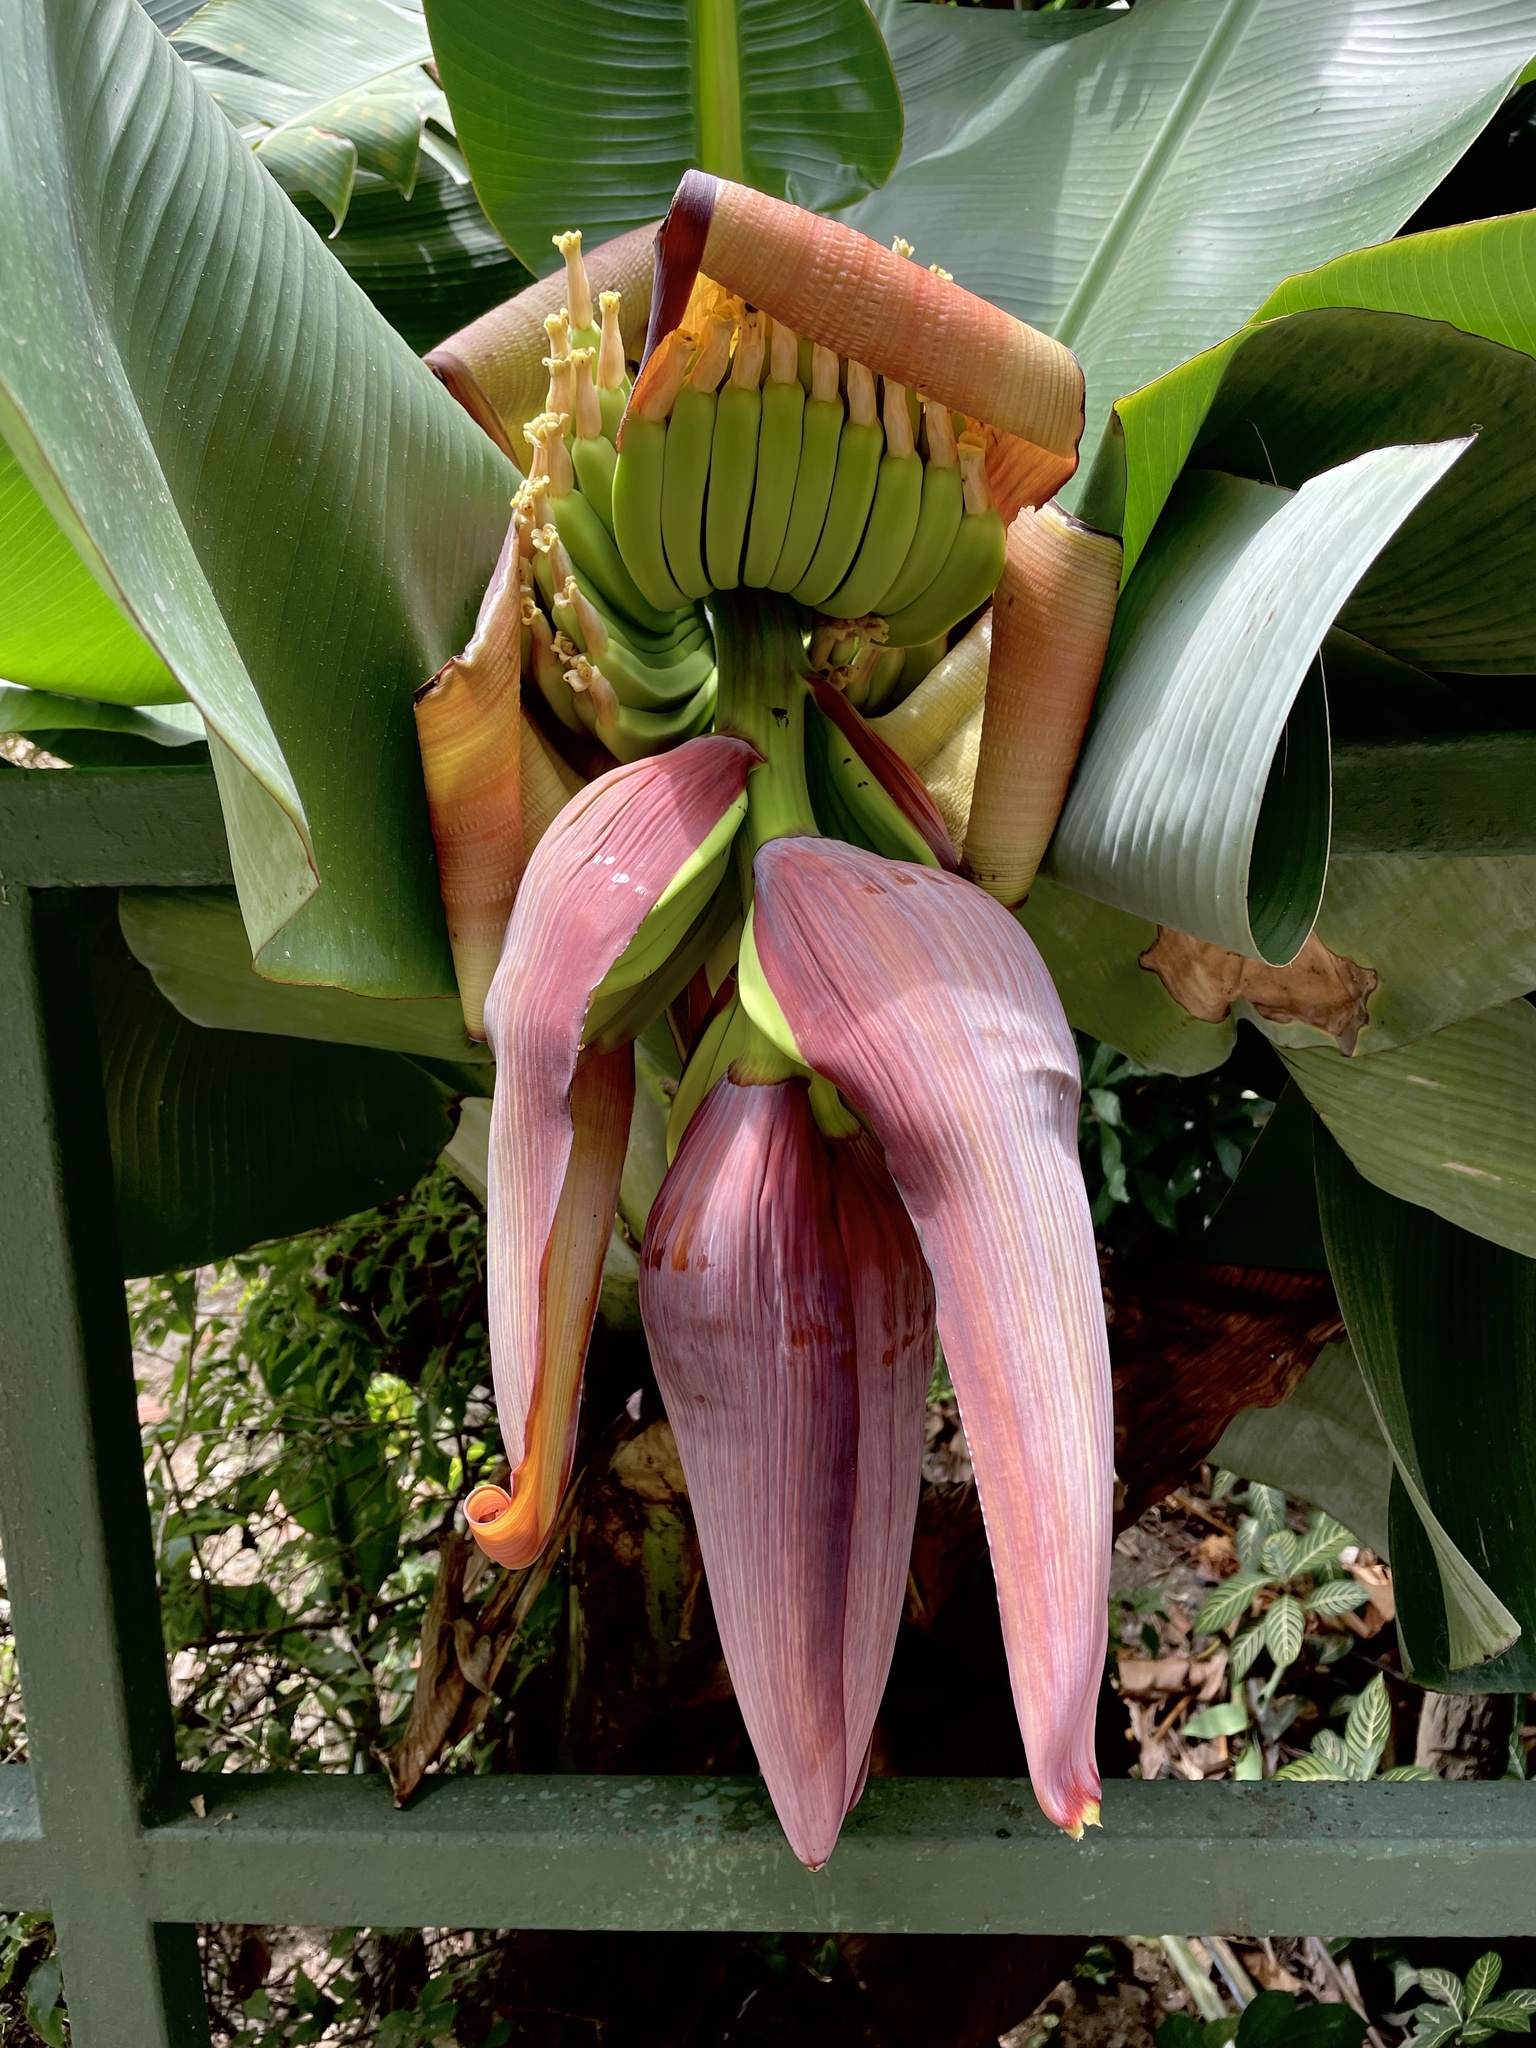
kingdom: Plantae
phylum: Tracheophyta
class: Liliopsida
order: Zingiberales
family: Musaceae
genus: Musa
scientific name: Musa acuminata
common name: Edible banana
